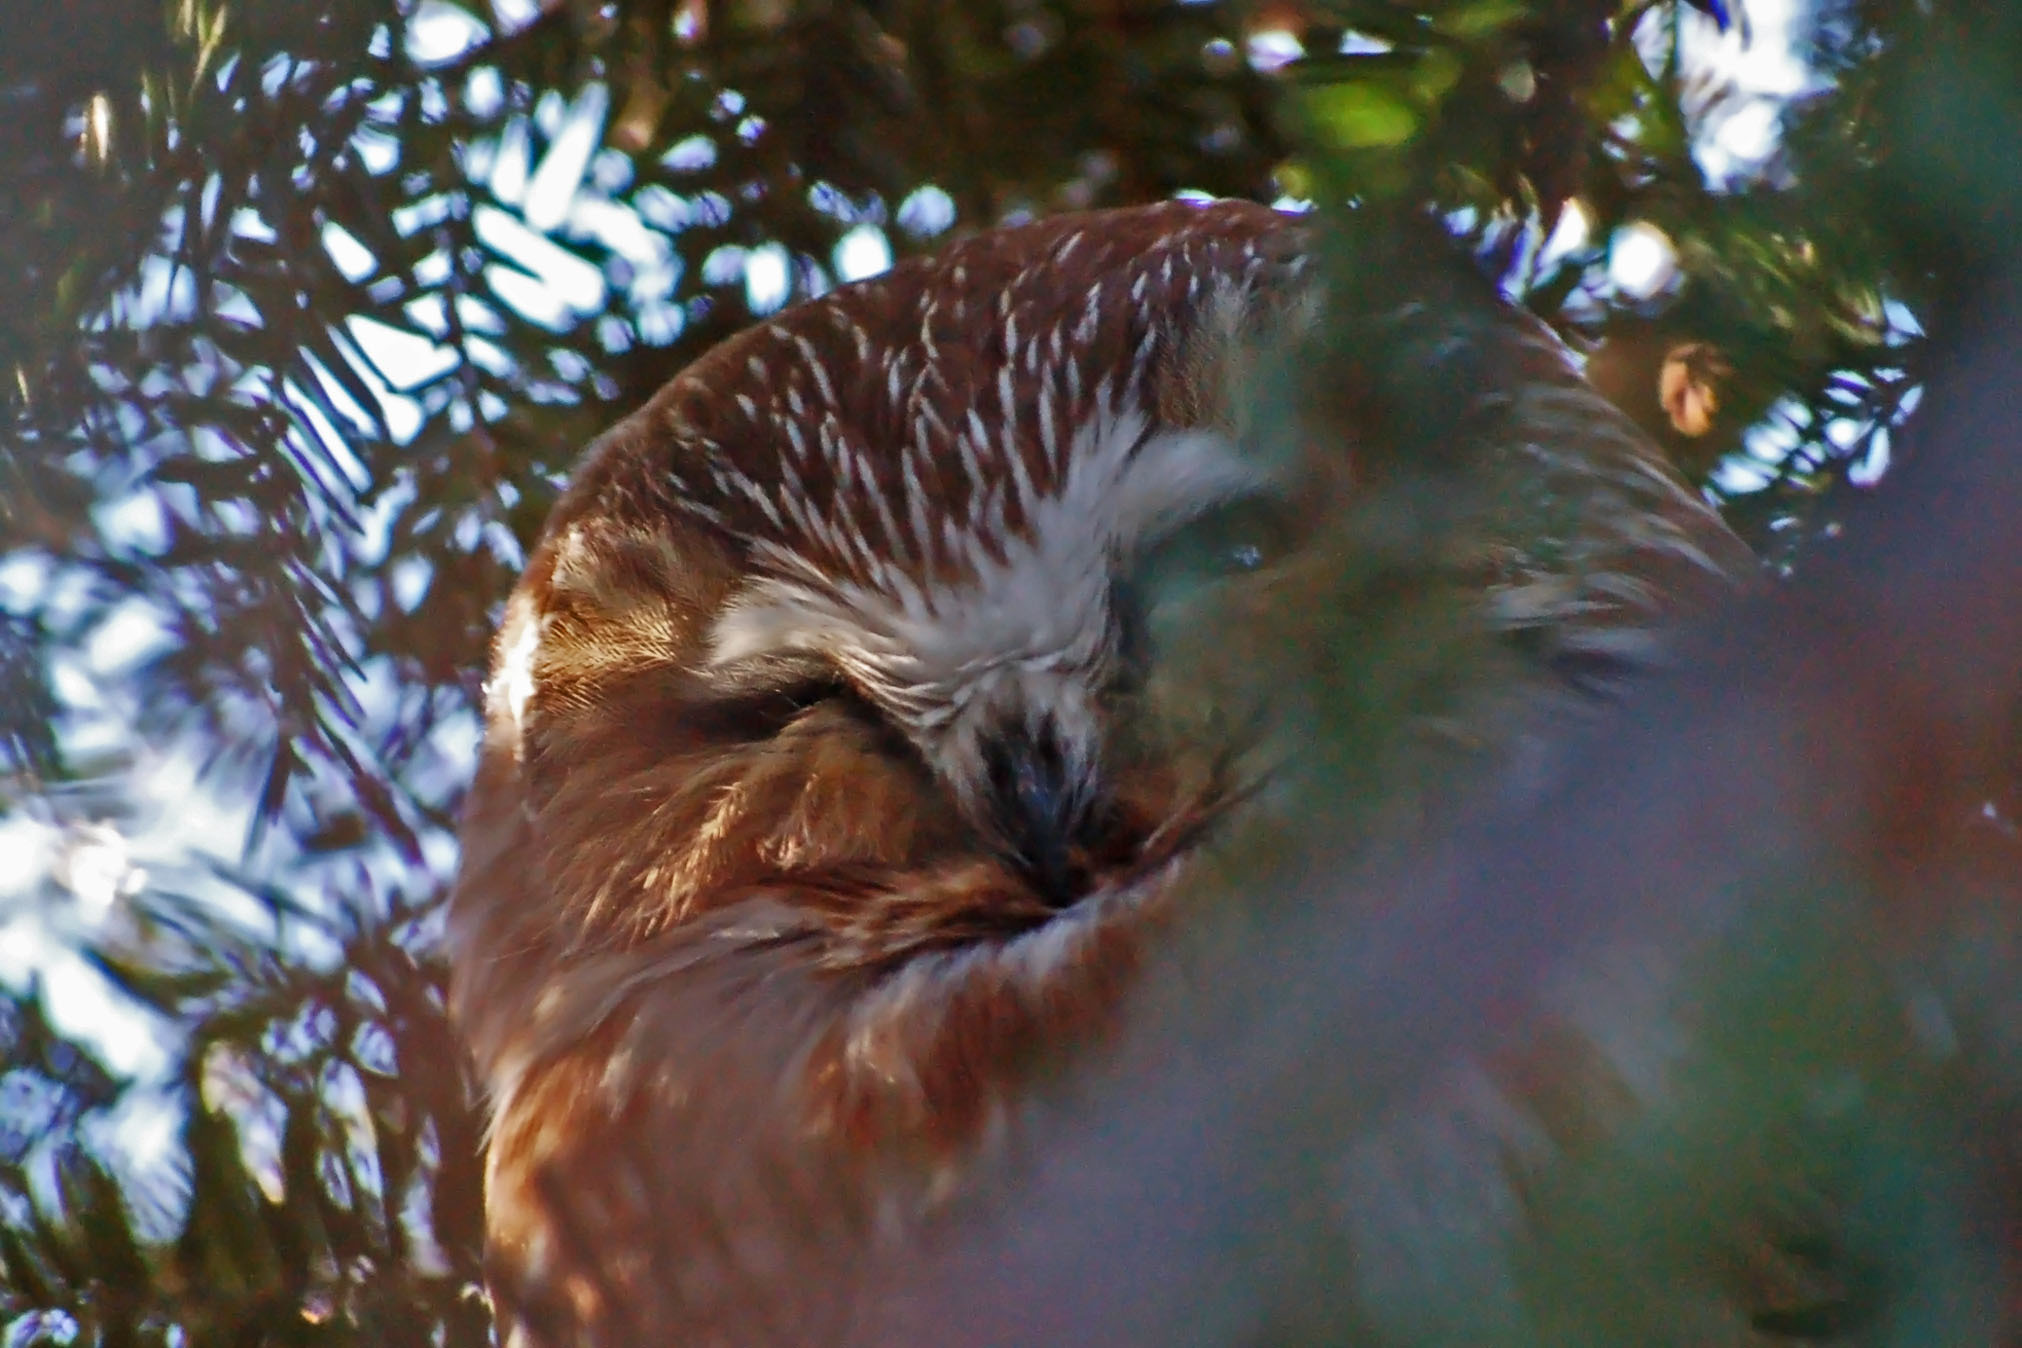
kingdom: Animalia
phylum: Chordata
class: Aves
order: Strigiformes
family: Strigidae
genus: Aegolius
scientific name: Aegolius acadicus
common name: Northern saw-whet owl
